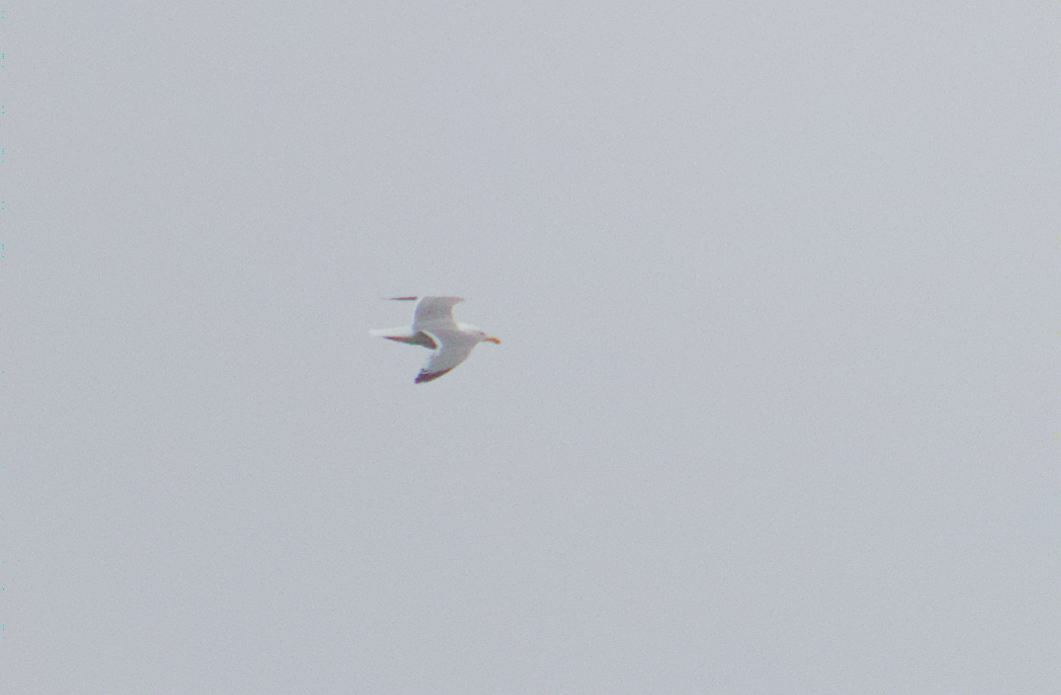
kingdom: Animalia
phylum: Chordata
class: Aves
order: Charadriiformes
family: Laridae
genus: Larus
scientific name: Larus argentatus
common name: Herring gull
